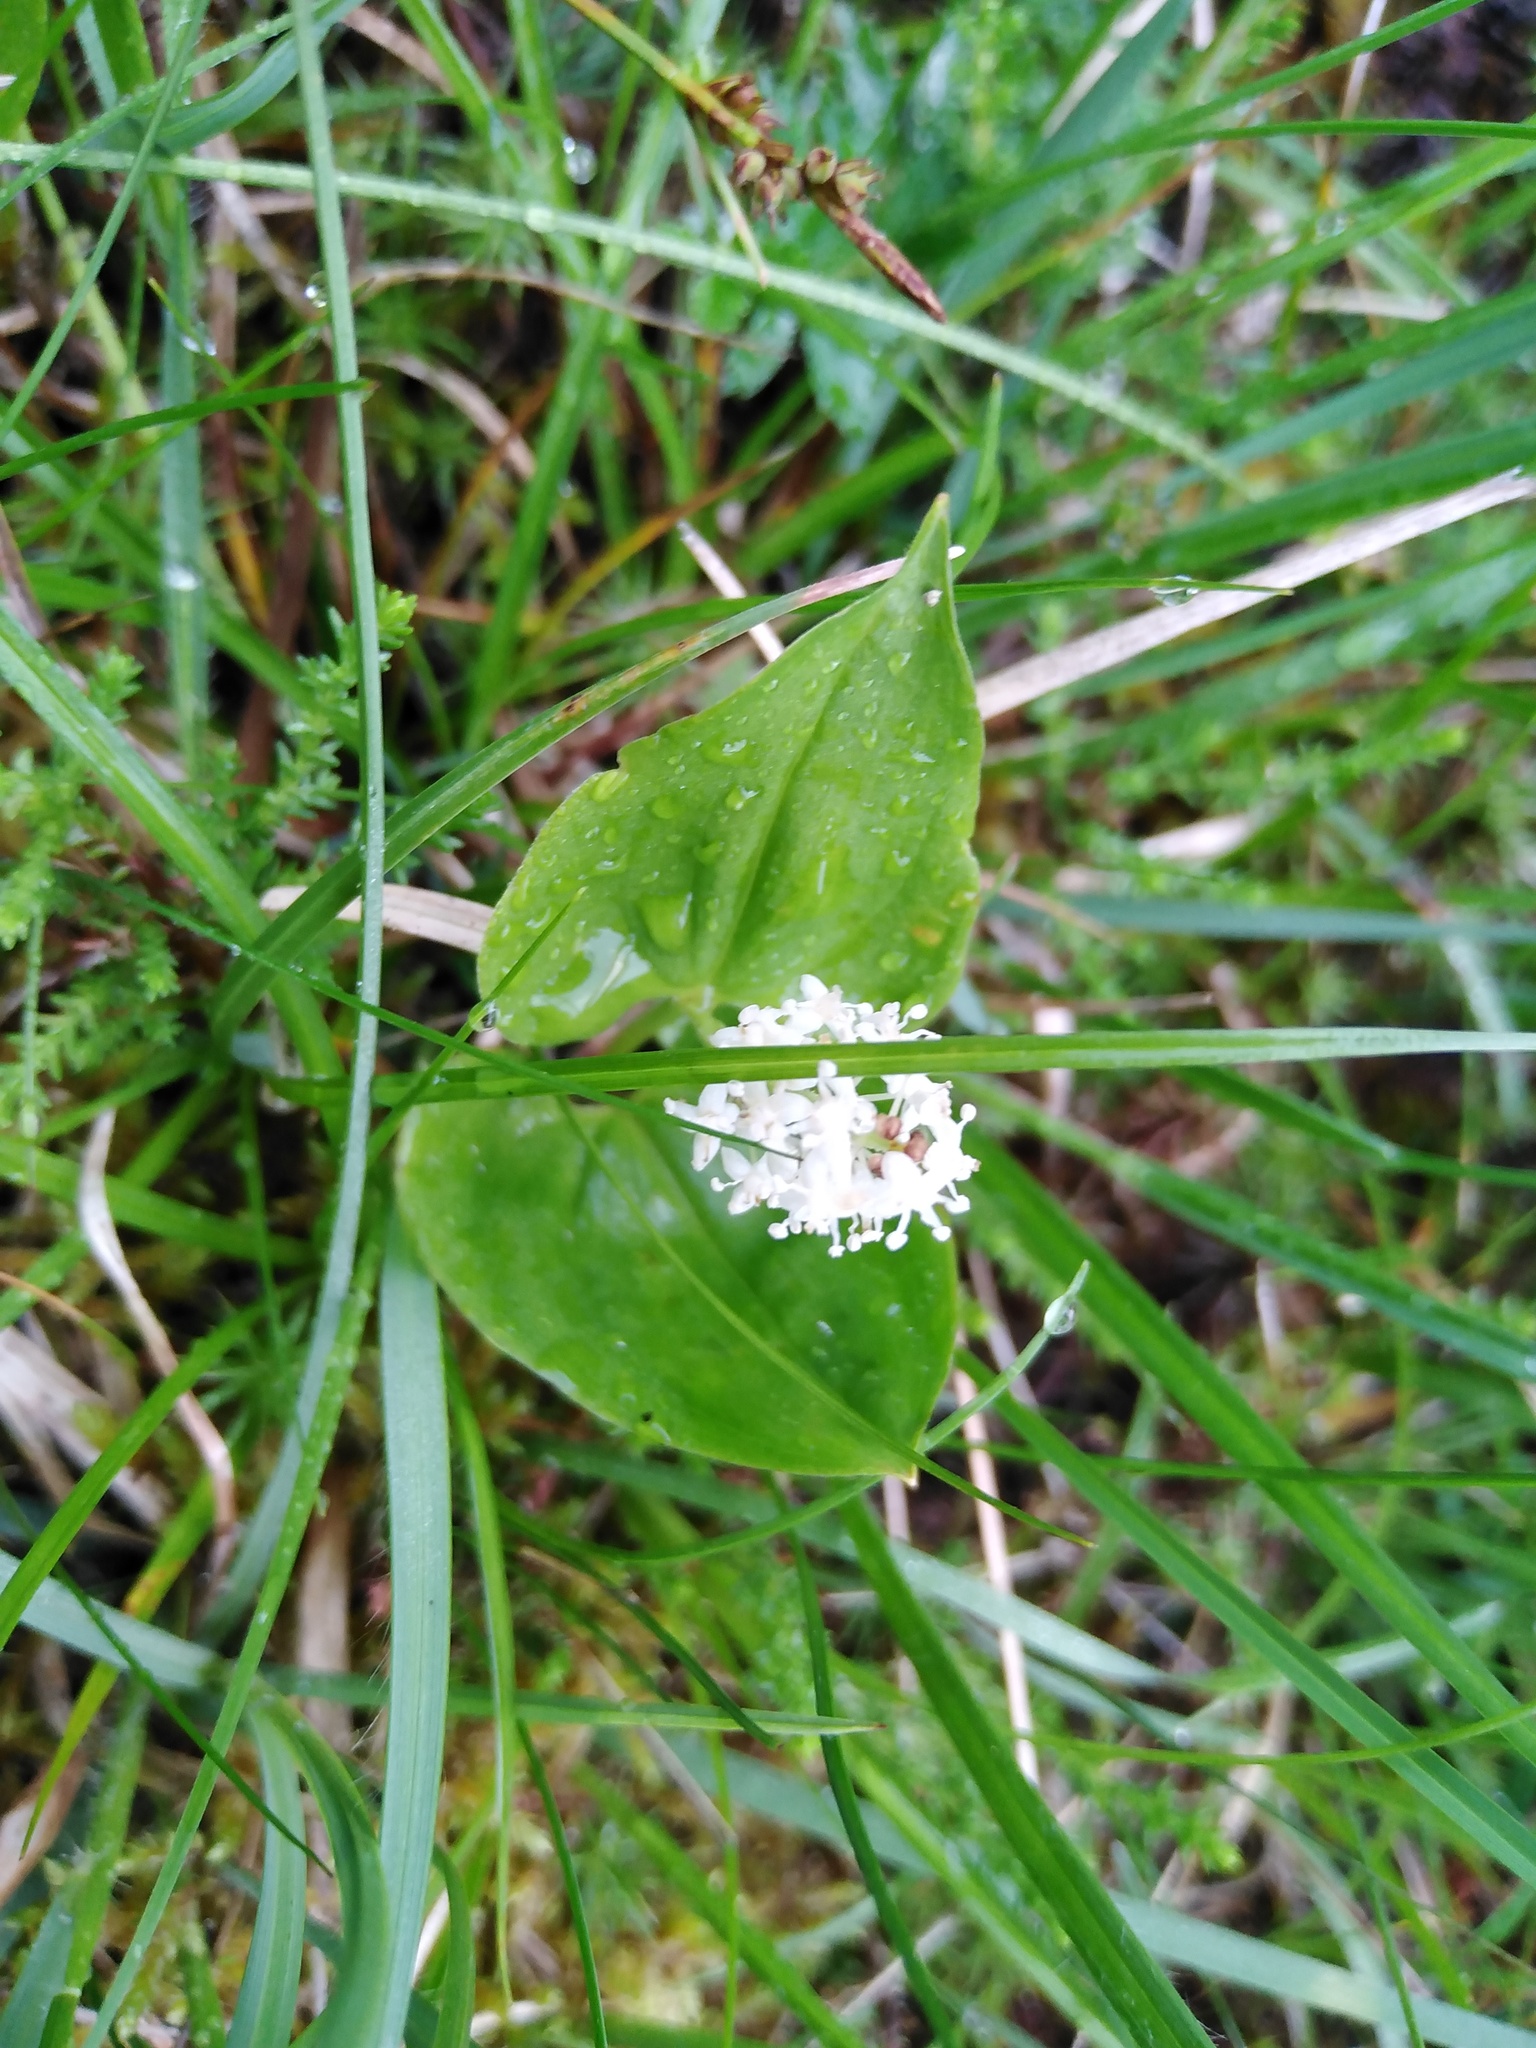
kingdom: Plantae
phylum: Tracheophyta
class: Liliopsida
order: Asparagales
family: Asparagaceae
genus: Maianthemum
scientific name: Maianthemum bifolium
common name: May lily
